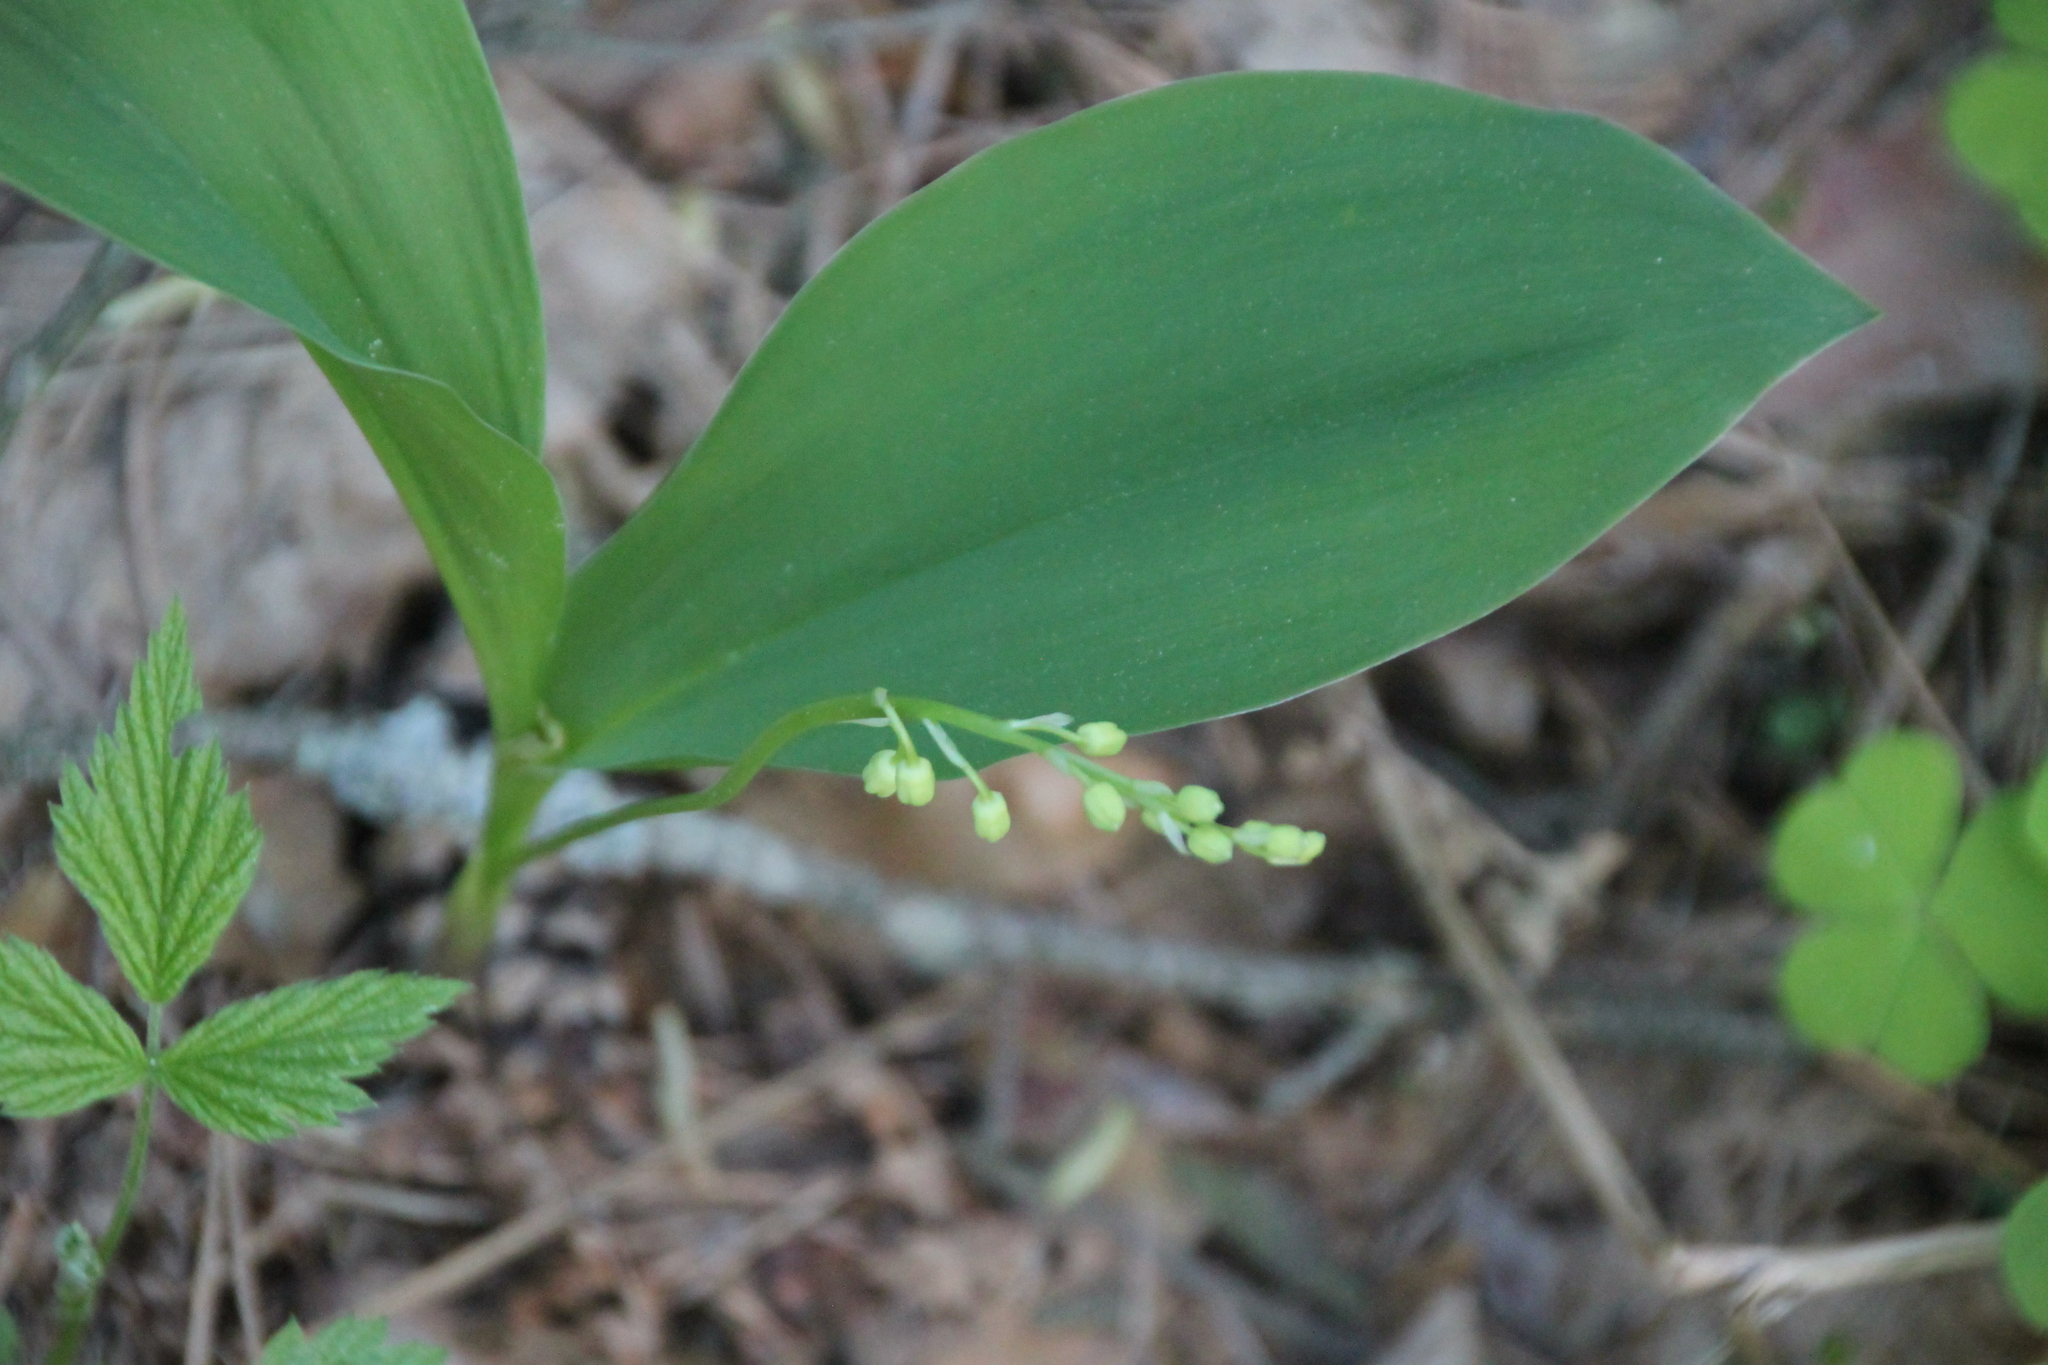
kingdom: Plantae
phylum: Tracheophyta
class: Liliopsida
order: Asparagales
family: Asparagaceae
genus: Convallaria
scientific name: Convallaria majalis
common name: Lily-of-the-valley
